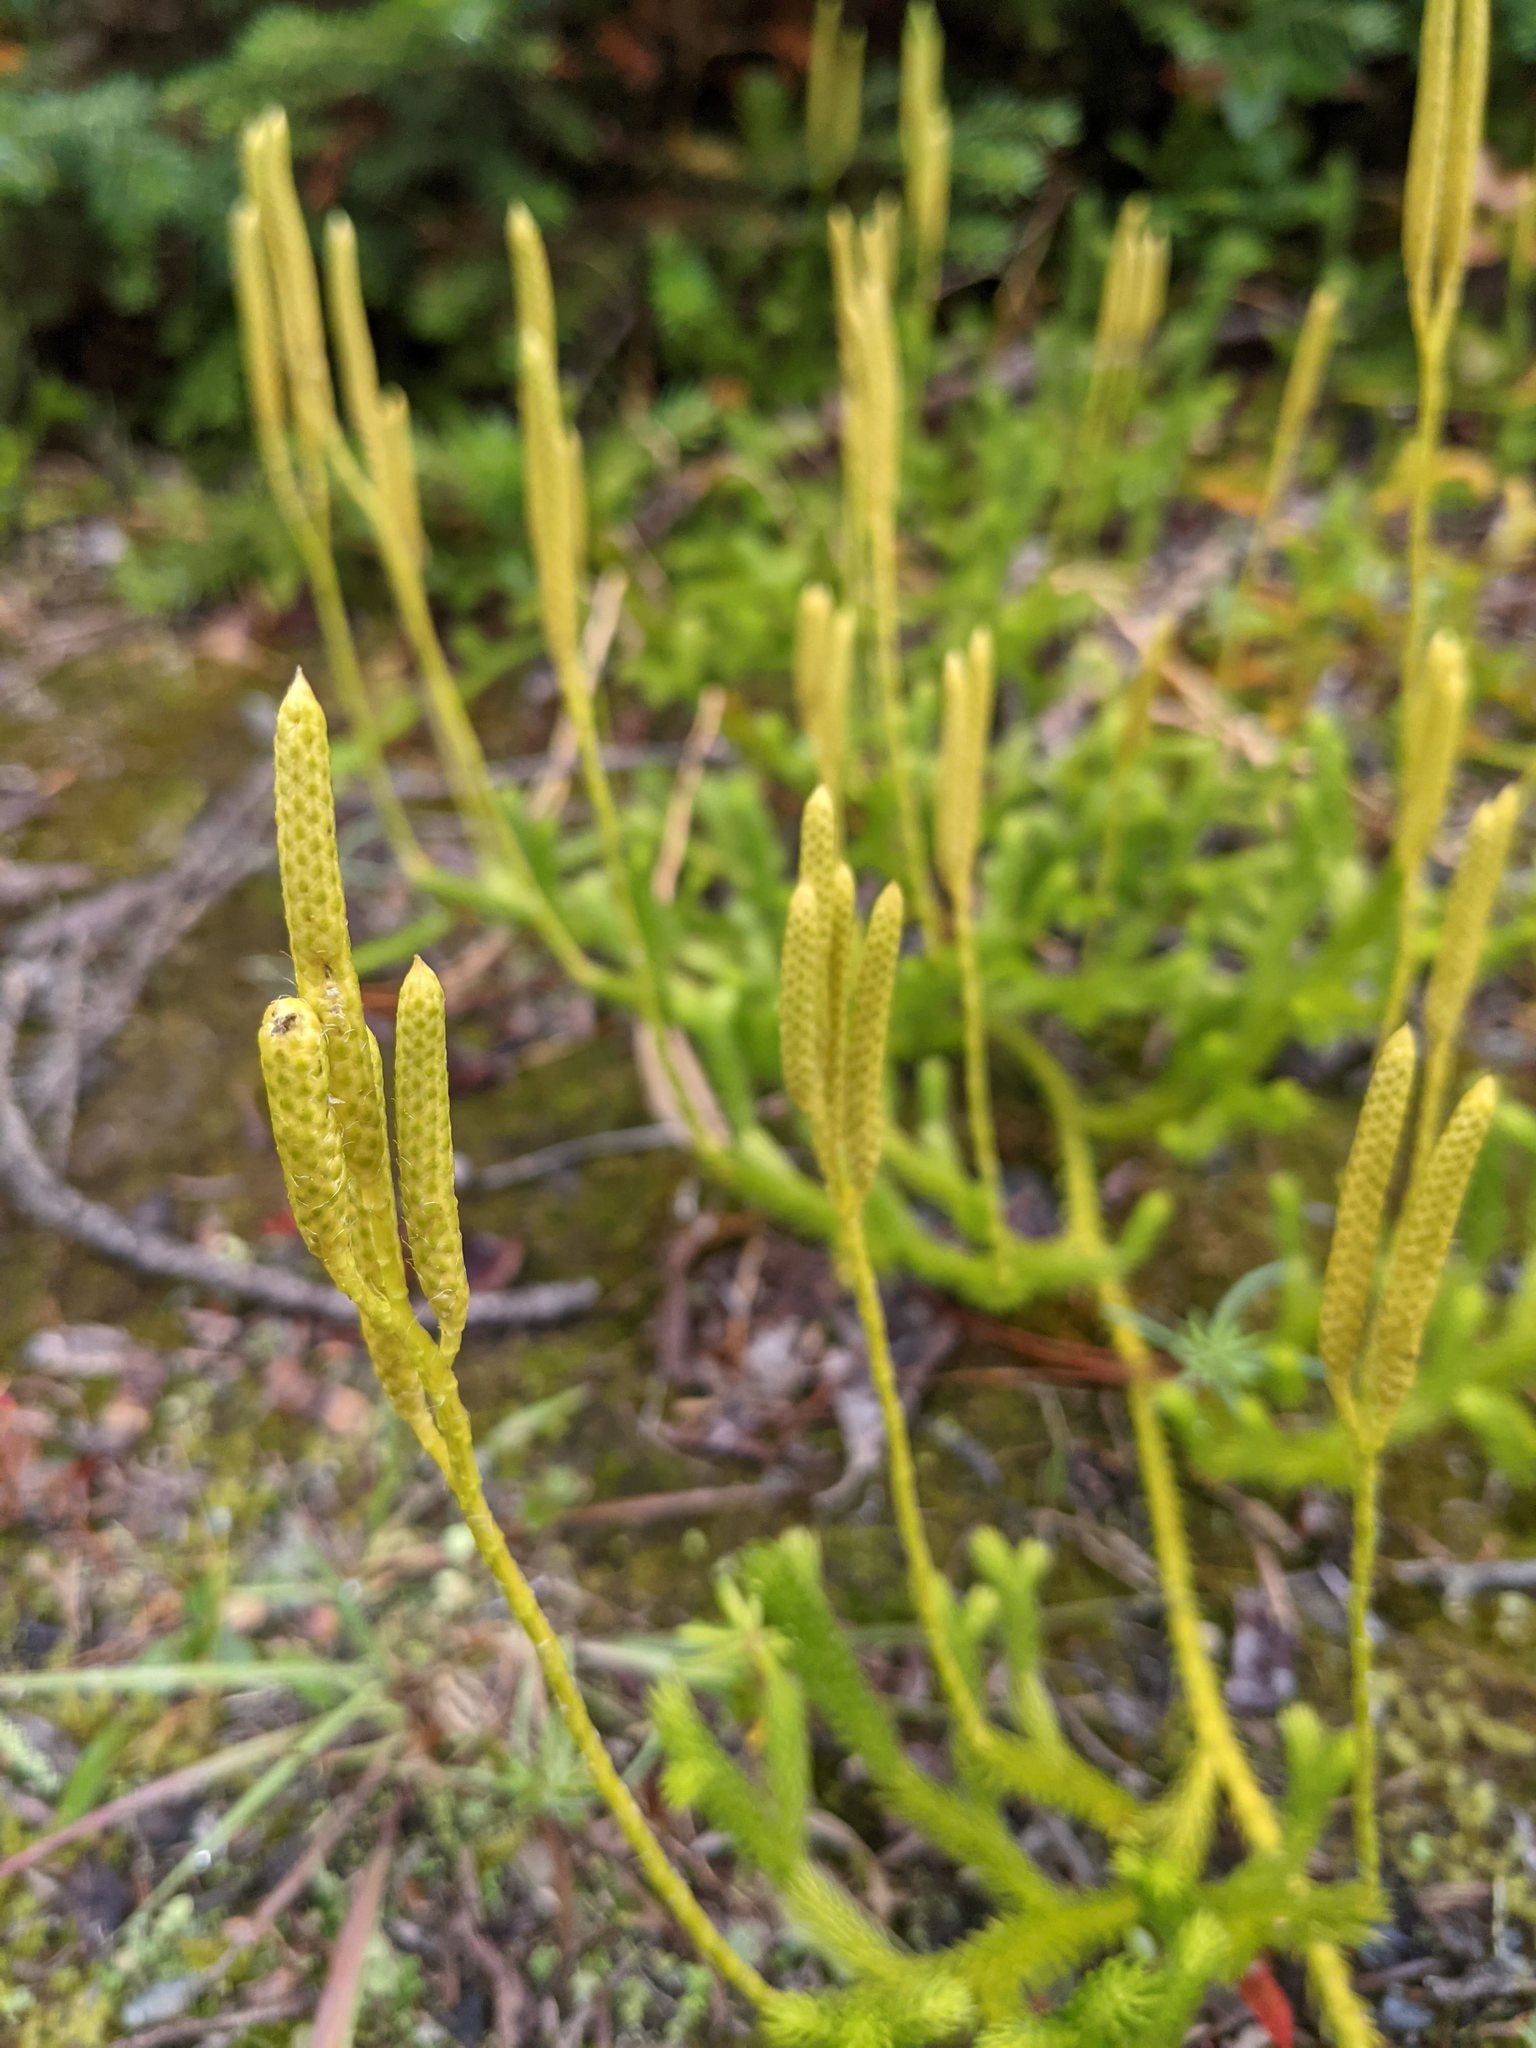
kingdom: Plantae
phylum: Tracheophyta
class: Lycopodiopsida
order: Lycopodiales
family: Lycopodiaceae
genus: Lycopodium
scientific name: Lycopodium clavatum
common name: Stag's-horn clubmoss
